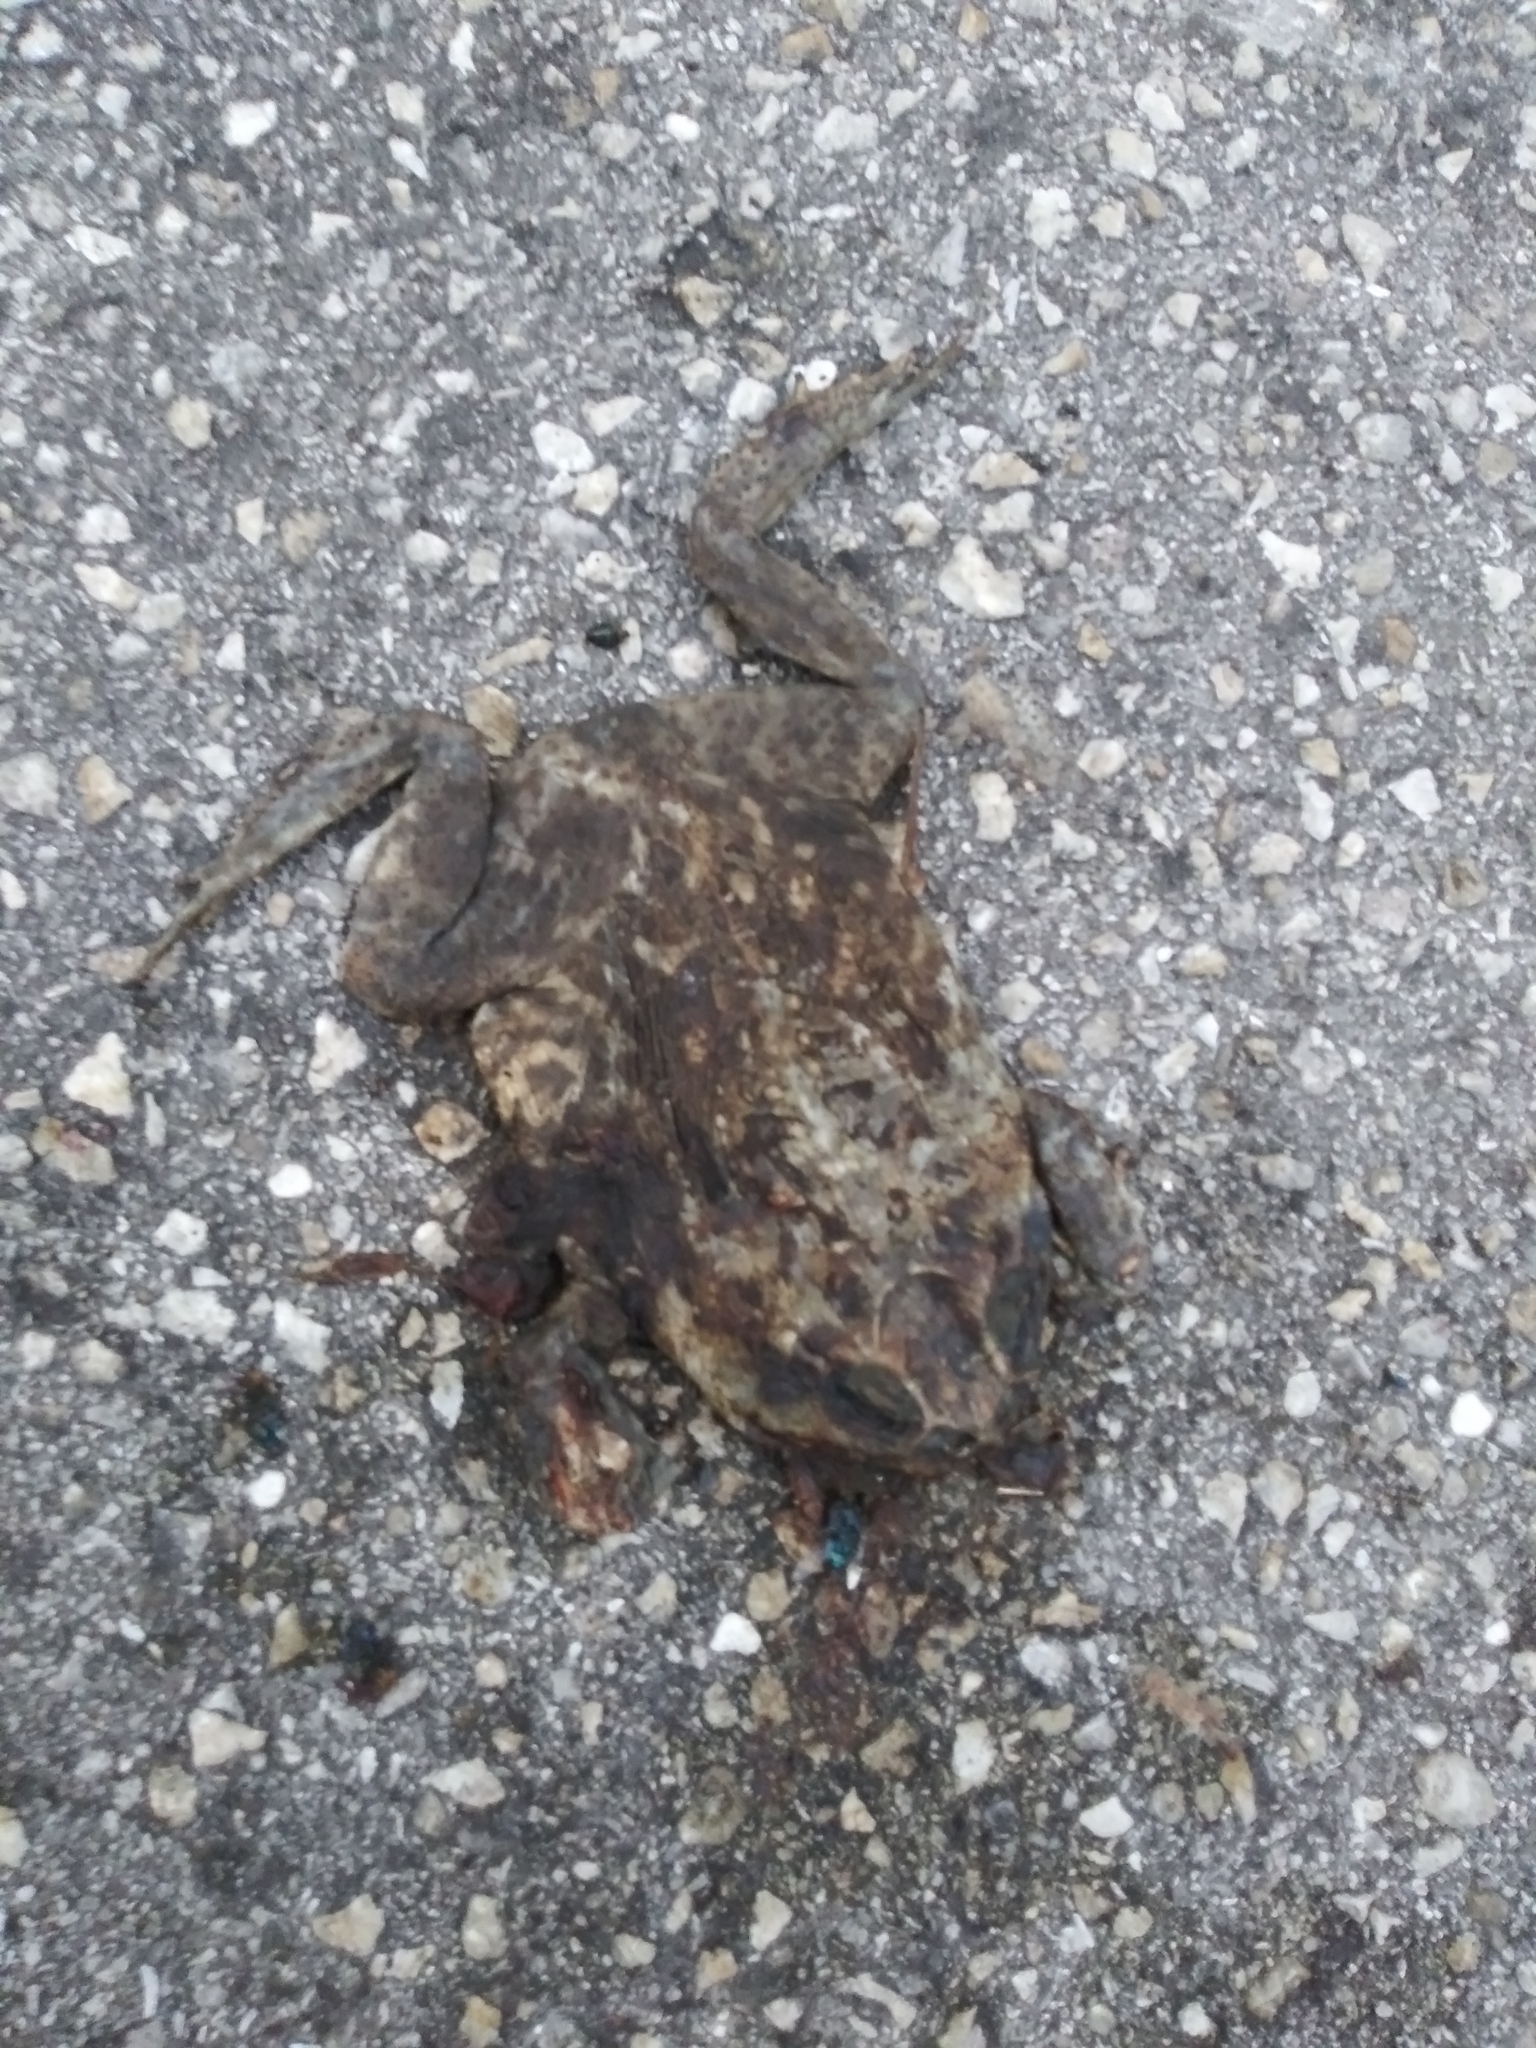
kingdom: Animalia
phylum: Chordata
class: Amphibia
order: Anura
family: Bufonidae
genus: Rhinella
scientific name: Rhinella marina
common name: Cane toad
